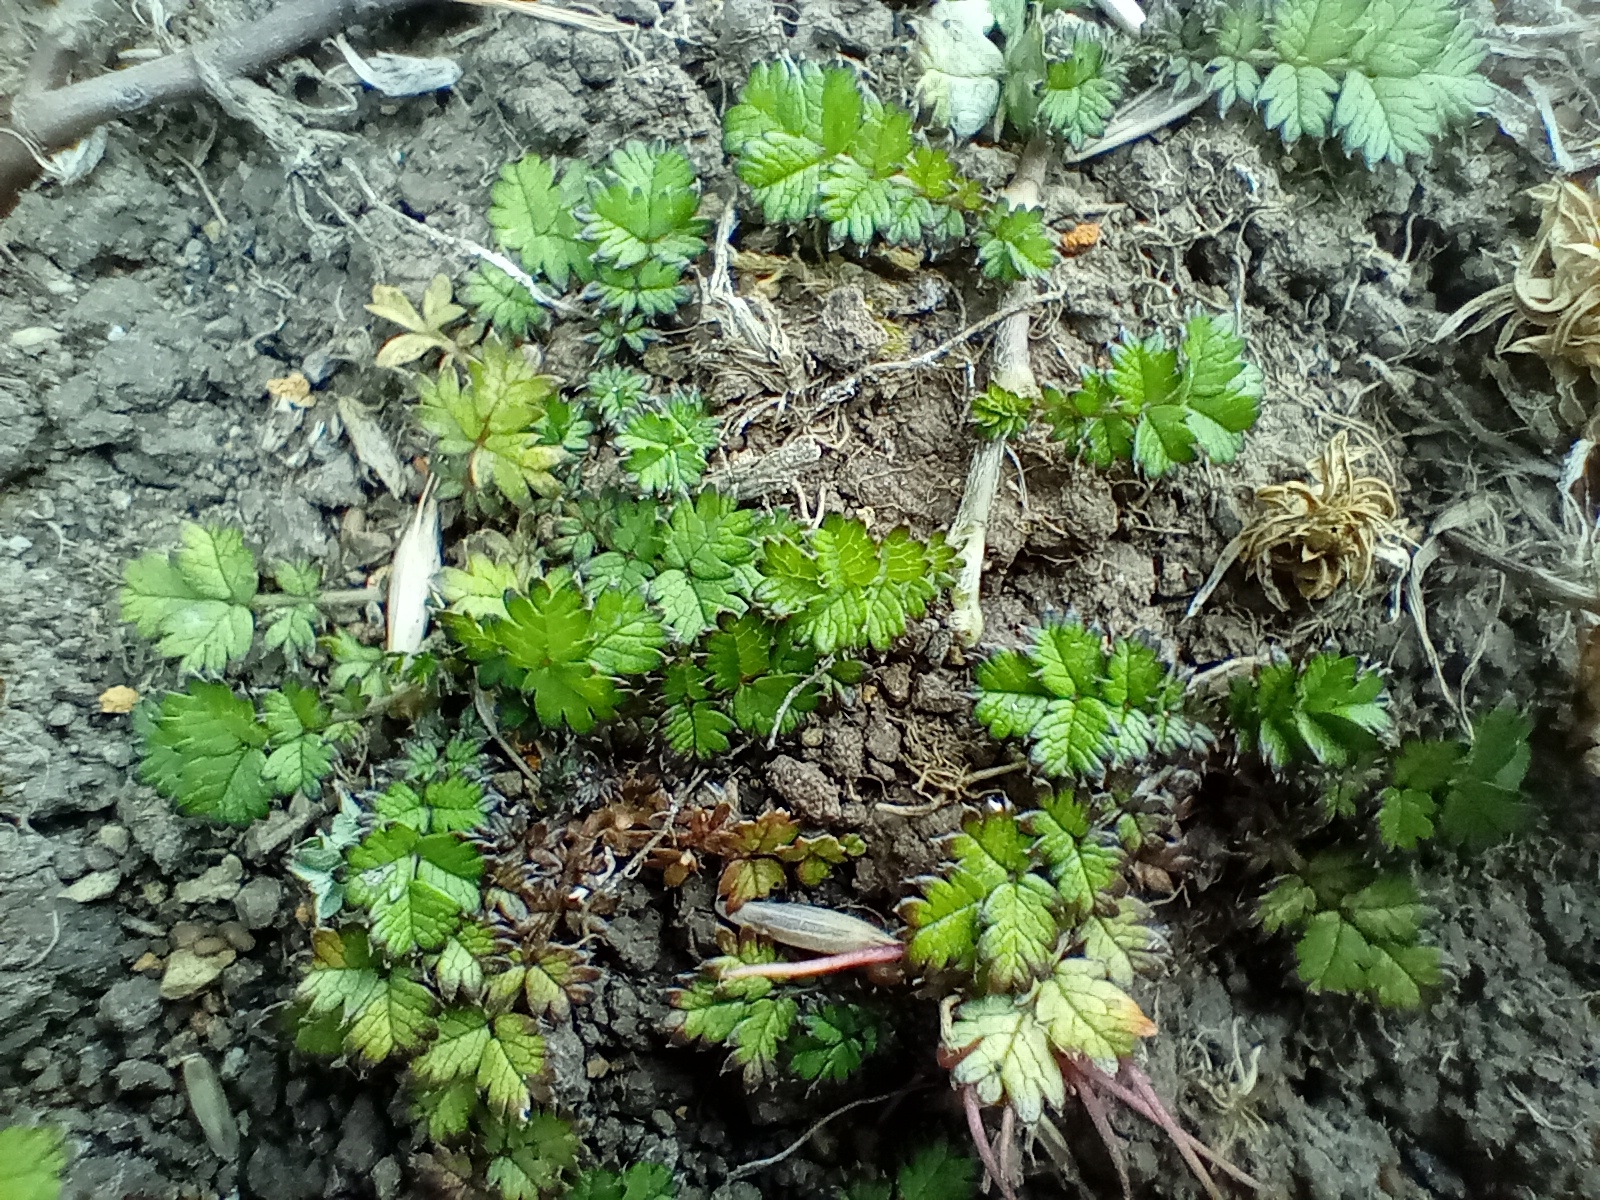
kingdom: Plantae
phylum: Tracheophyta
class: Magnoliopsida
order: Rosales
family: Rosaceae
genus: Acaena
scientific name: Acaena microphylla
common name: New zealand-bur
